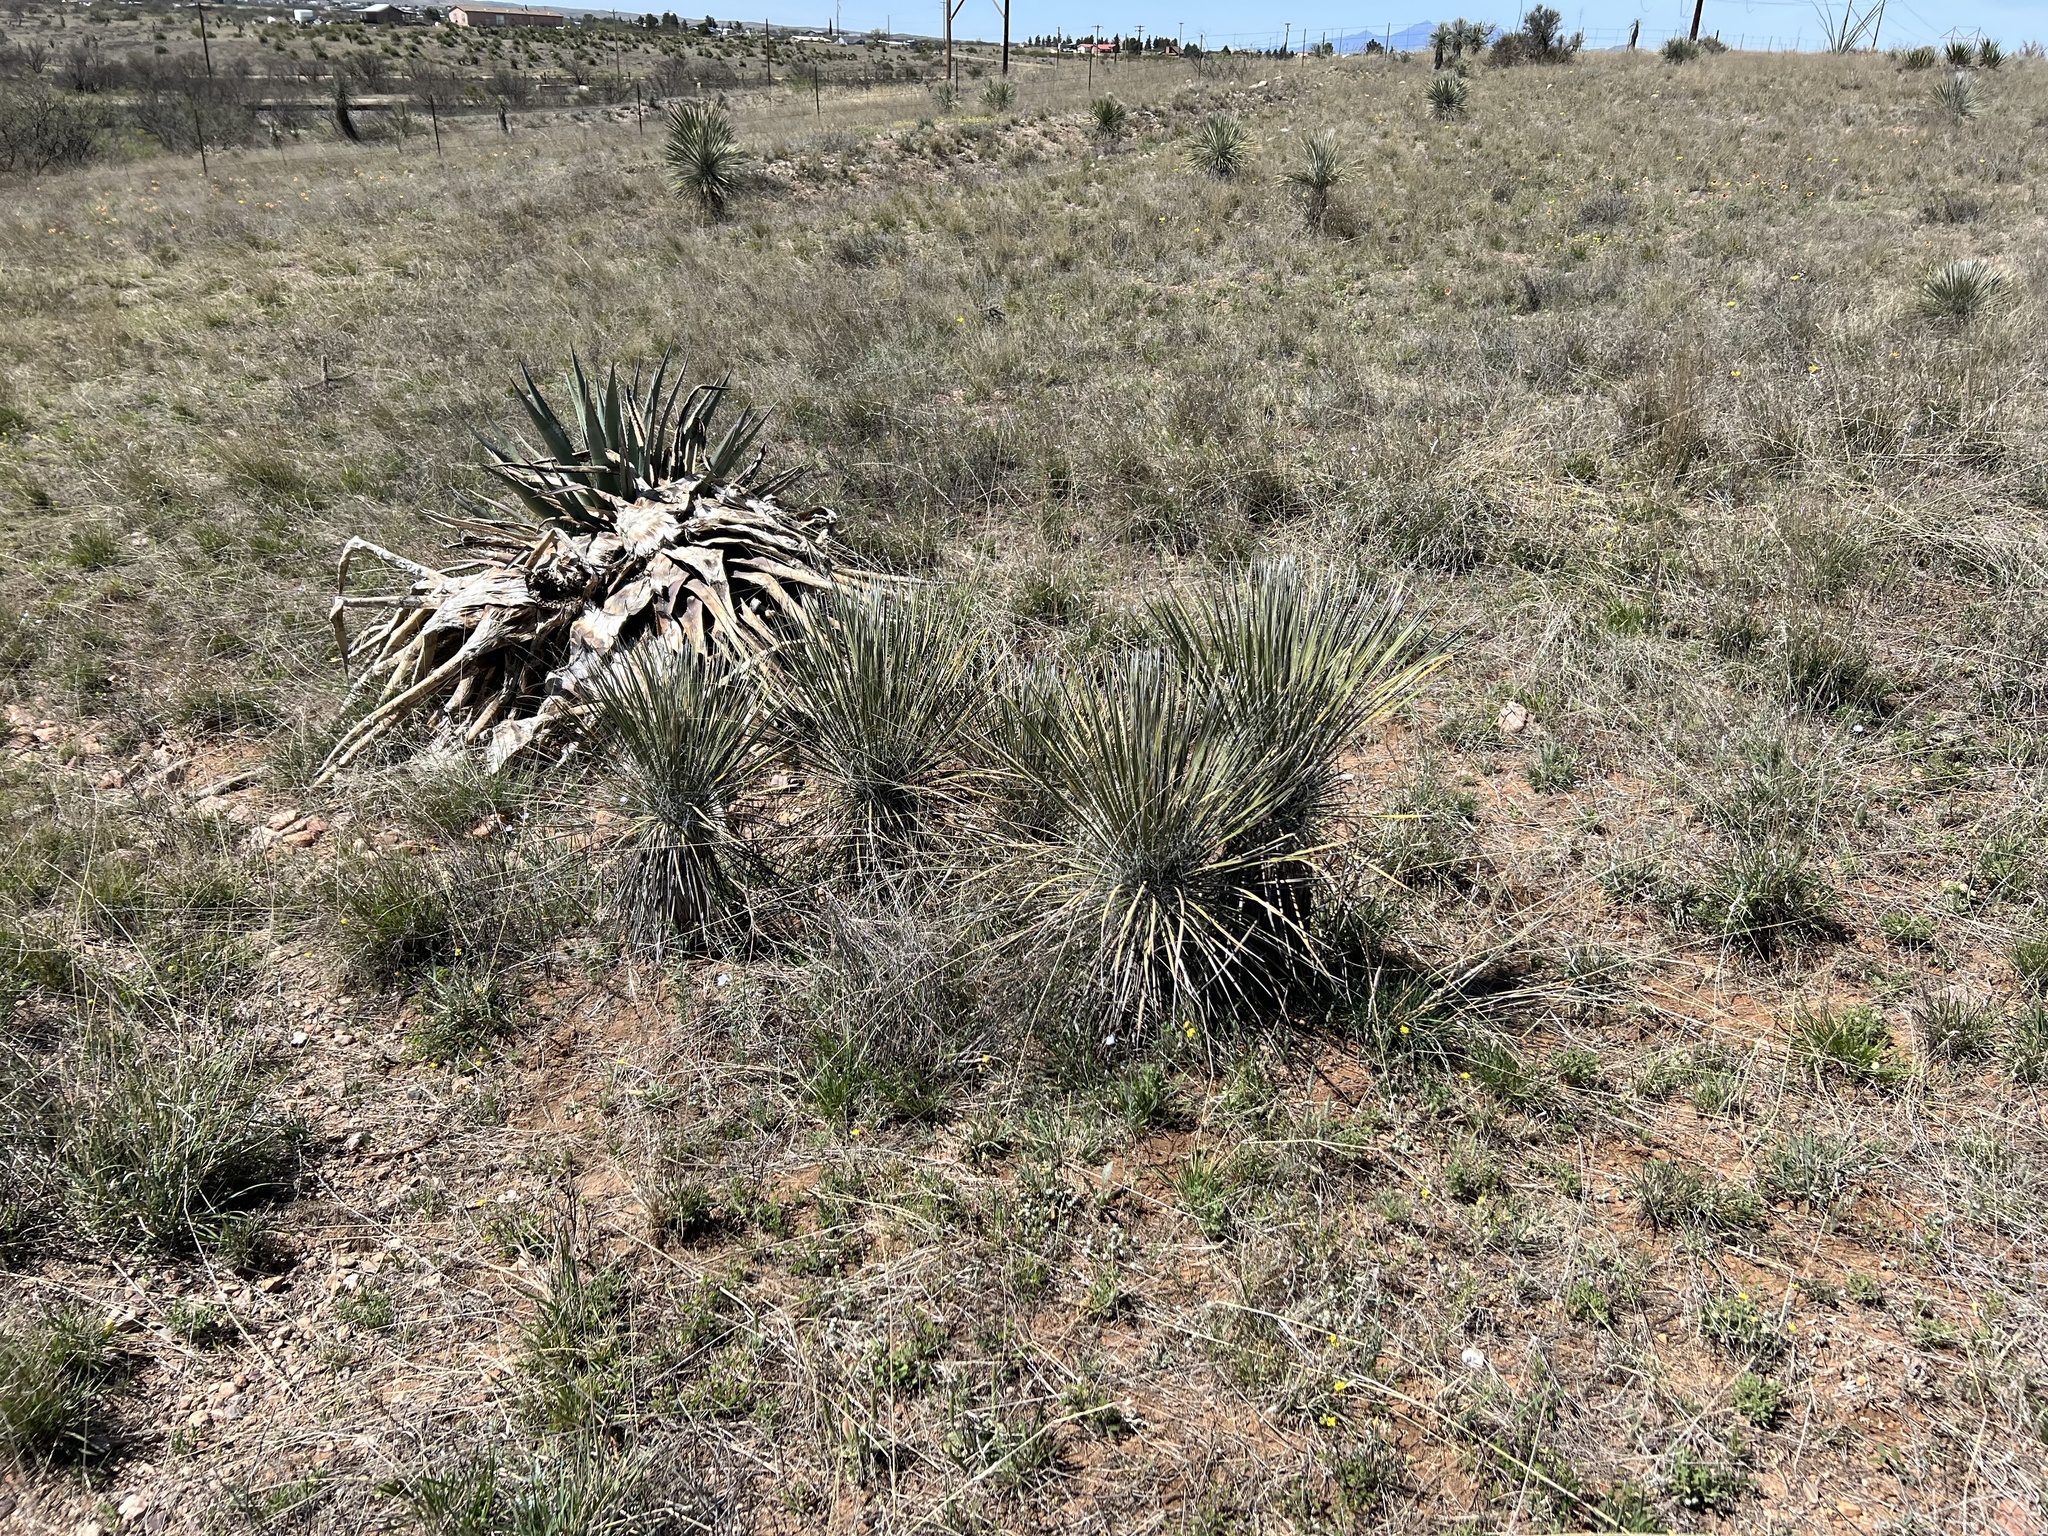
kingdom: Plantae
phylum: Tracheophyta
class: Liliopsida
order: Asparagales
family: Asparagaceae
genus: Yucca
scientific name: Yucca elata
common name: Palmella
